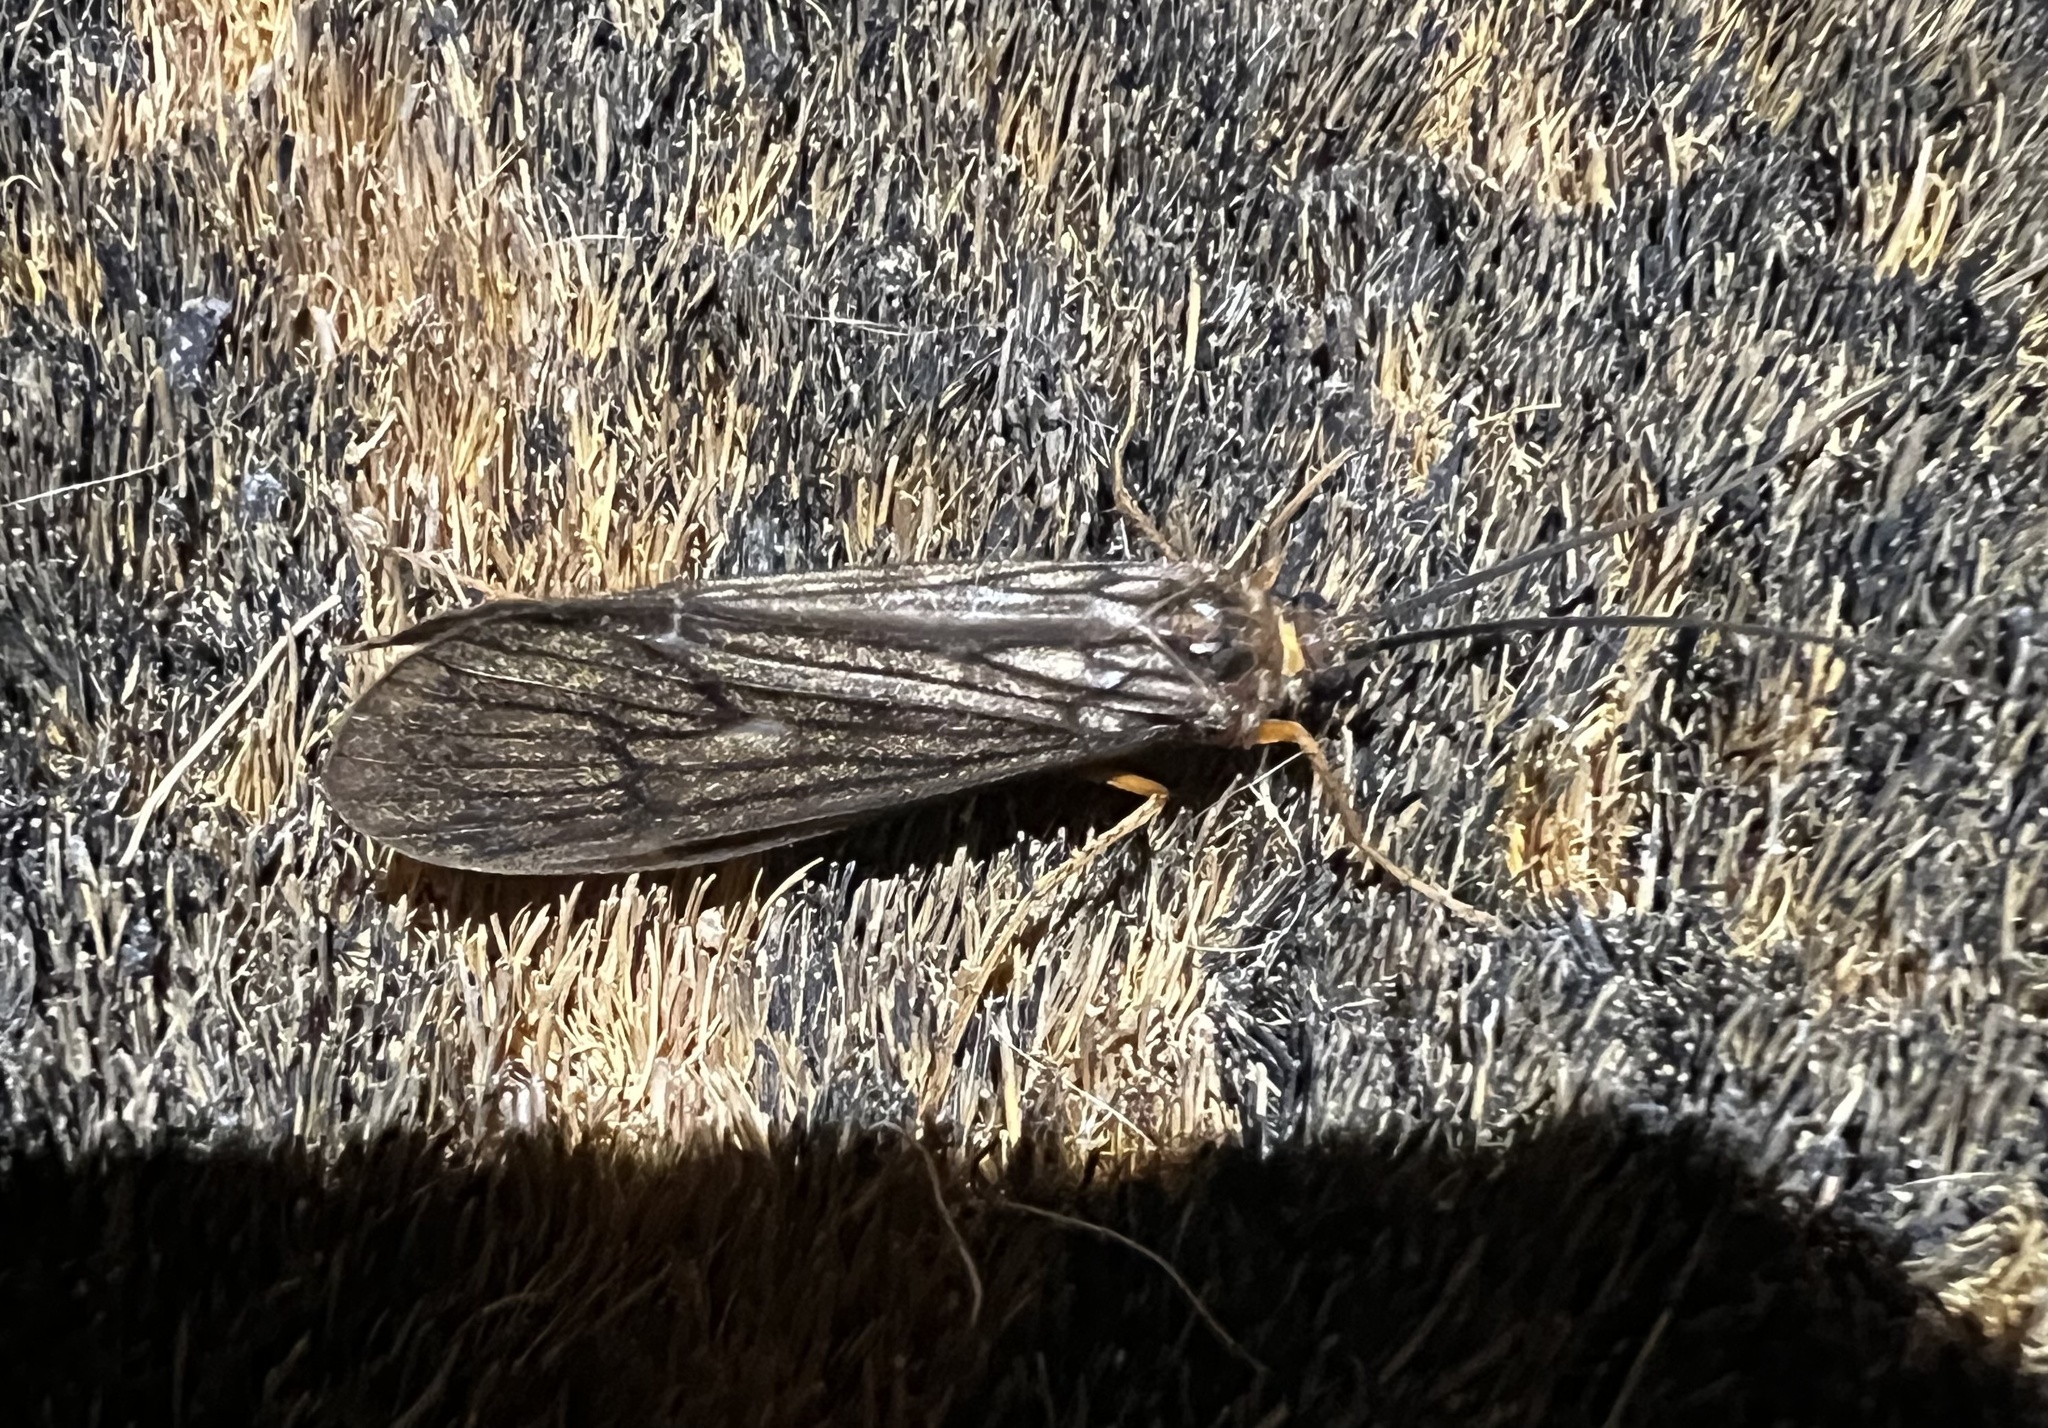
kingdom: Animalia
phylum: Arthropoda
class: Insecta
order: Trichoptera
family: Limnephilidae
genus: Dicosmoecus
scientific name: Dicosmoecus gilvipes
